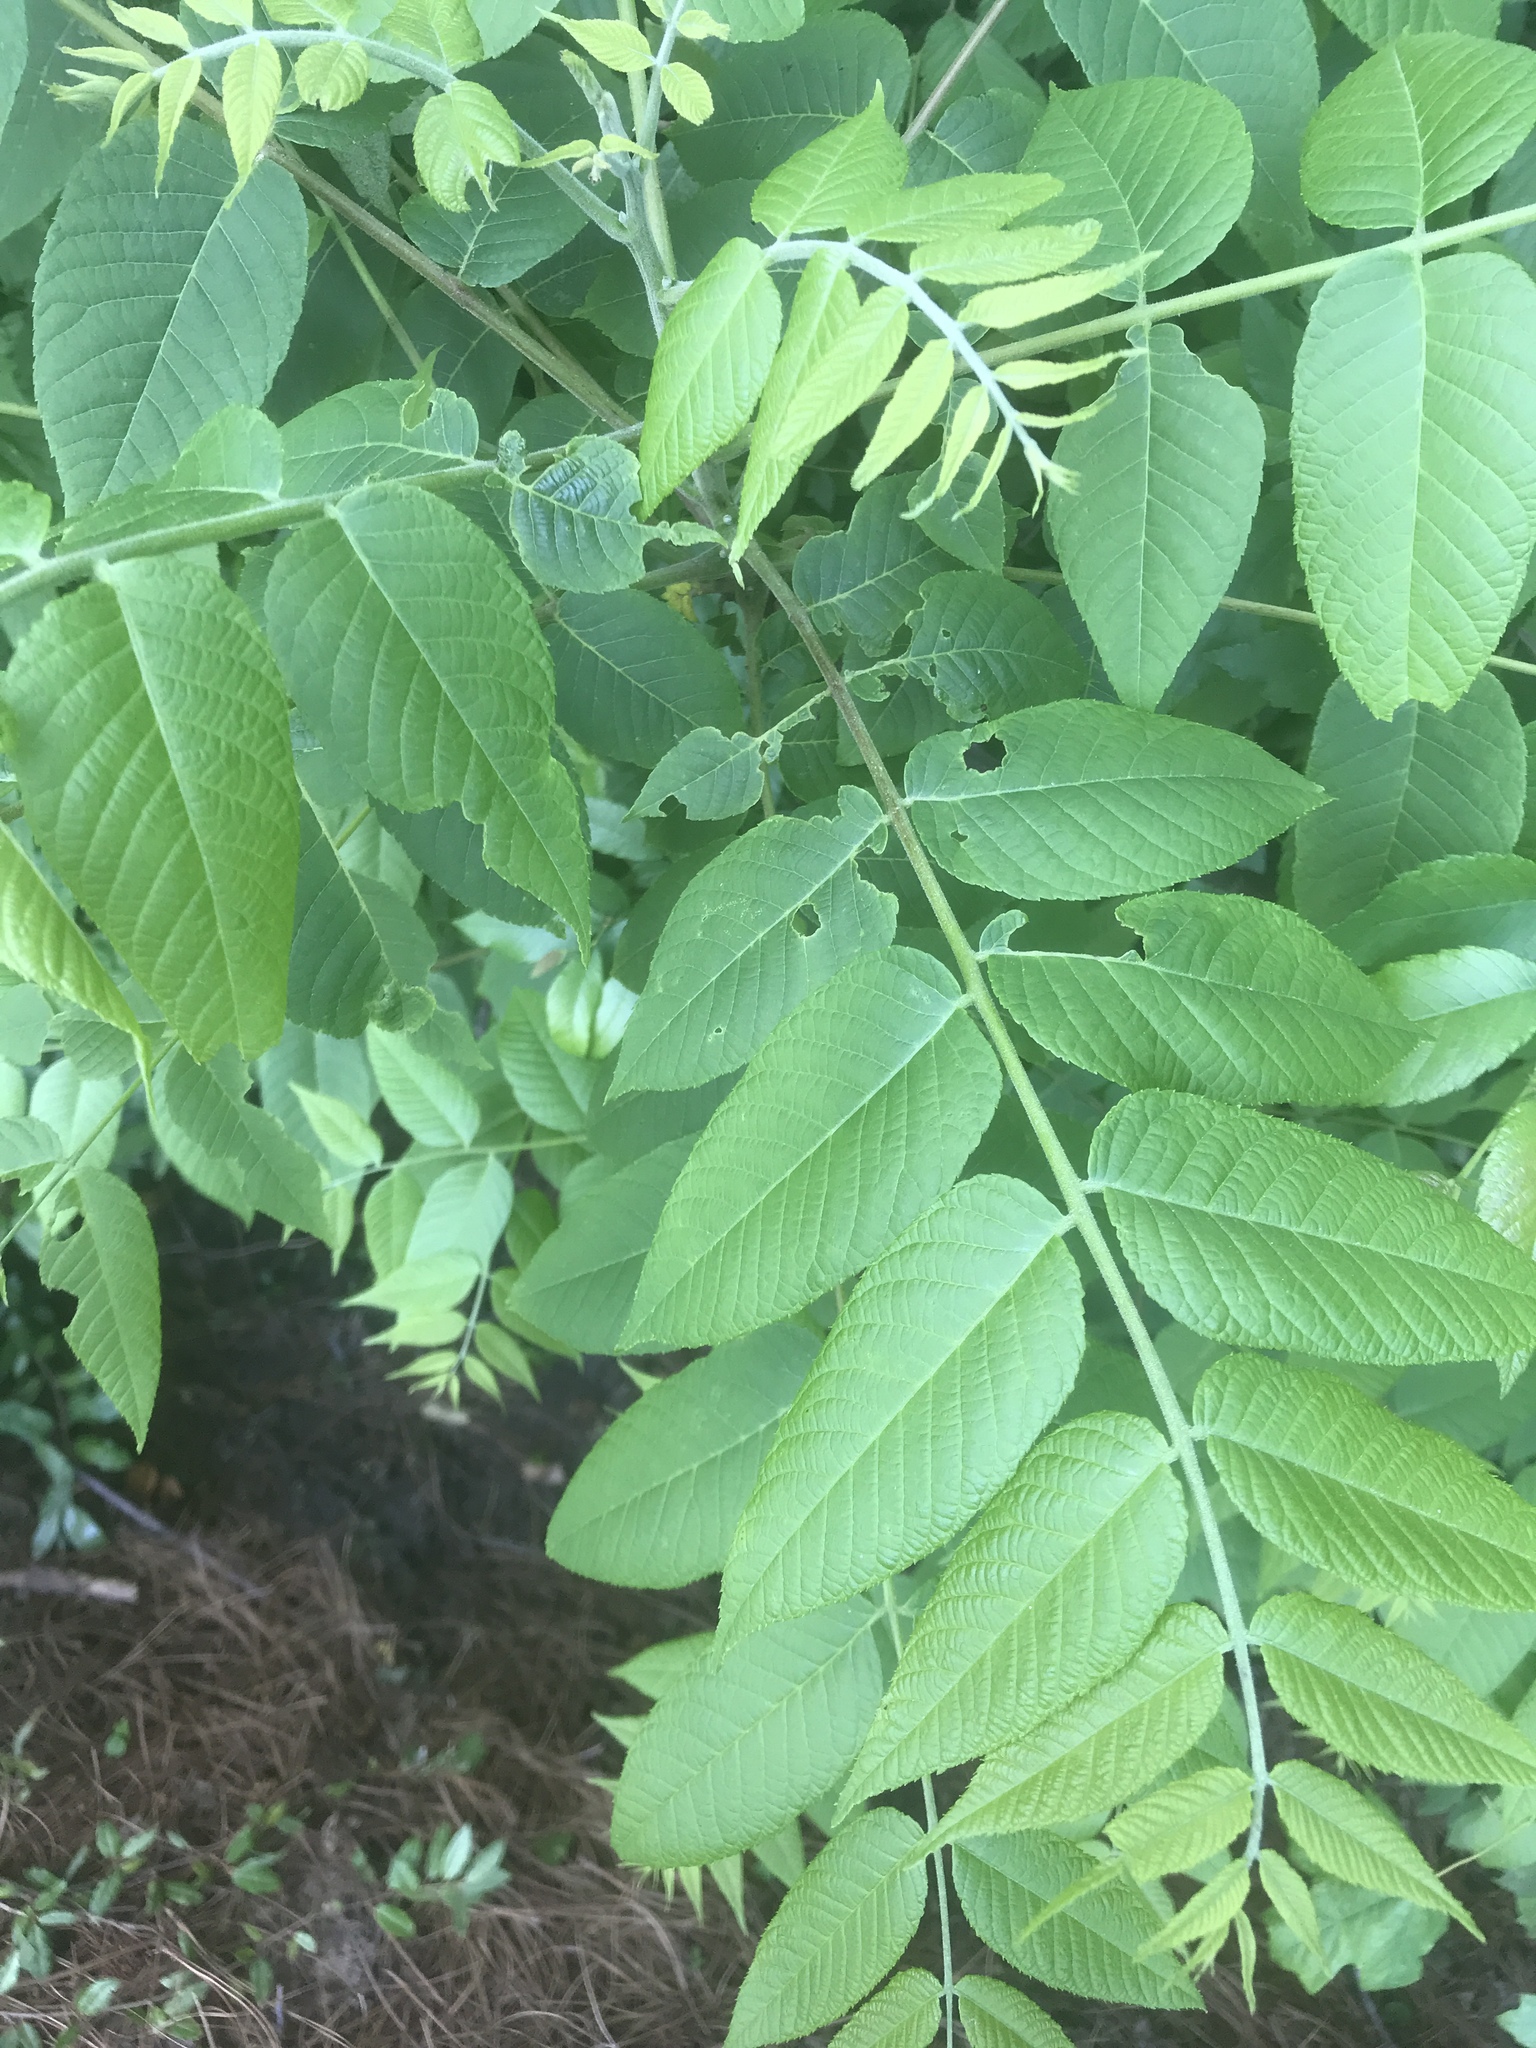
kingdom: Plantae
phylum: Tracheophyta
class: Magnoliopsida
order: Fagales
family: Juglandaceae
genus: Juglans
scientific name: Juglans nigra
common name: Black walnut
